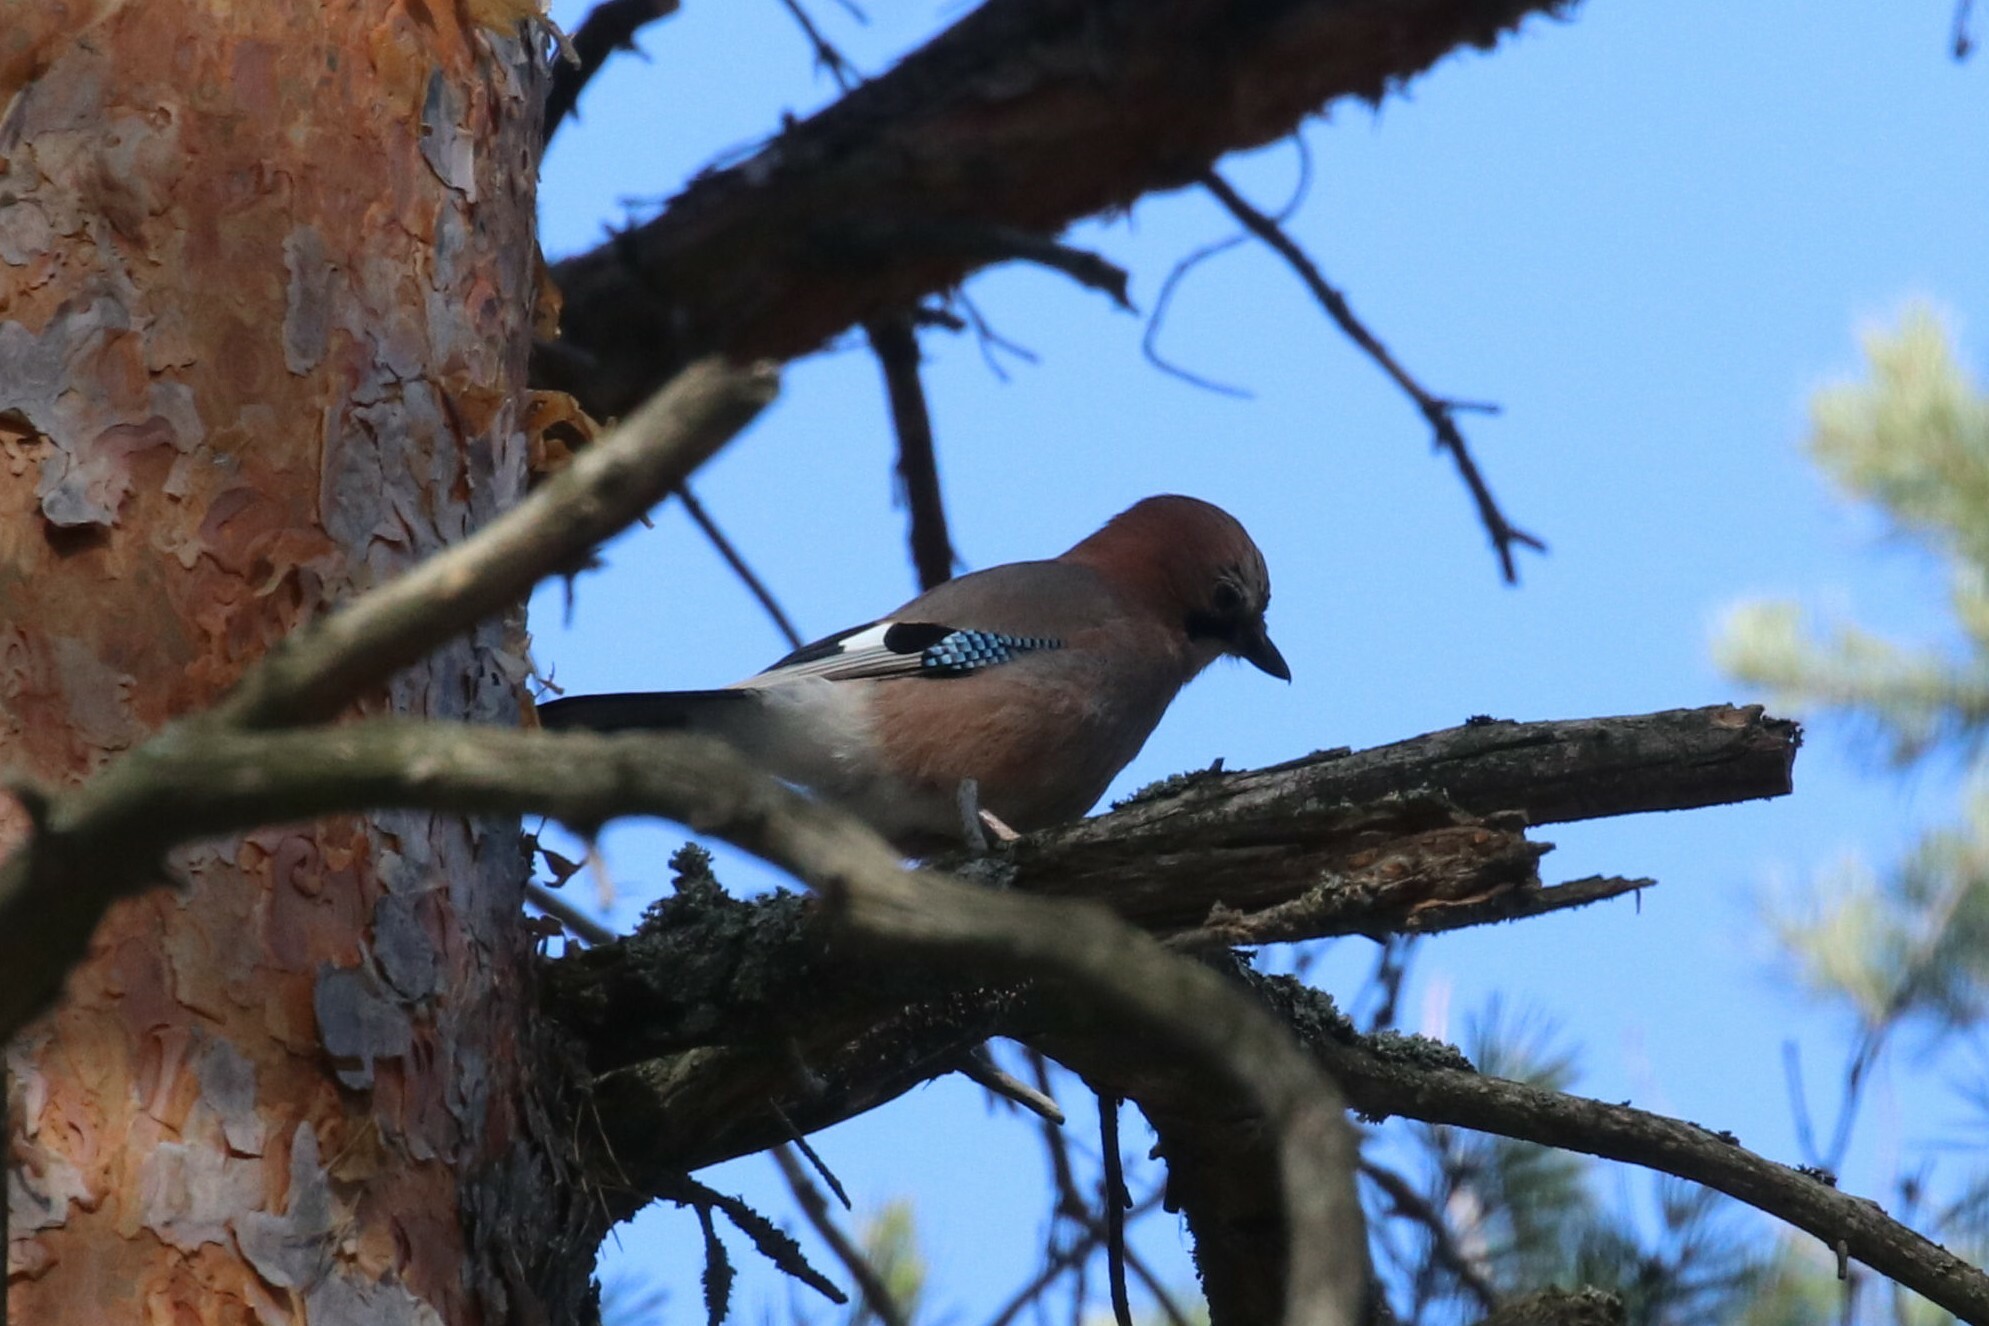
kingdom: Animalia
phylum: Chordata
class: Aves
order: Passeriformes
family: Corvidae
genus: Garrulus
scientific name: Garrulus glandarius
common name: Eurasian jay
